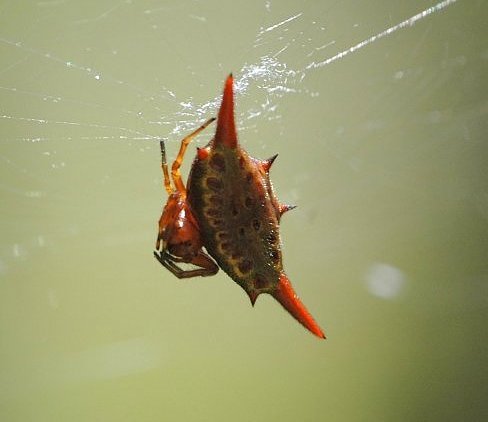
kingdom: Animalia
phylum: Arthropoda
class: Arachnida
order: Araneae
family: Araneidae
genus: Gasteracantha
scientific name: Gasteracantha versicolor
